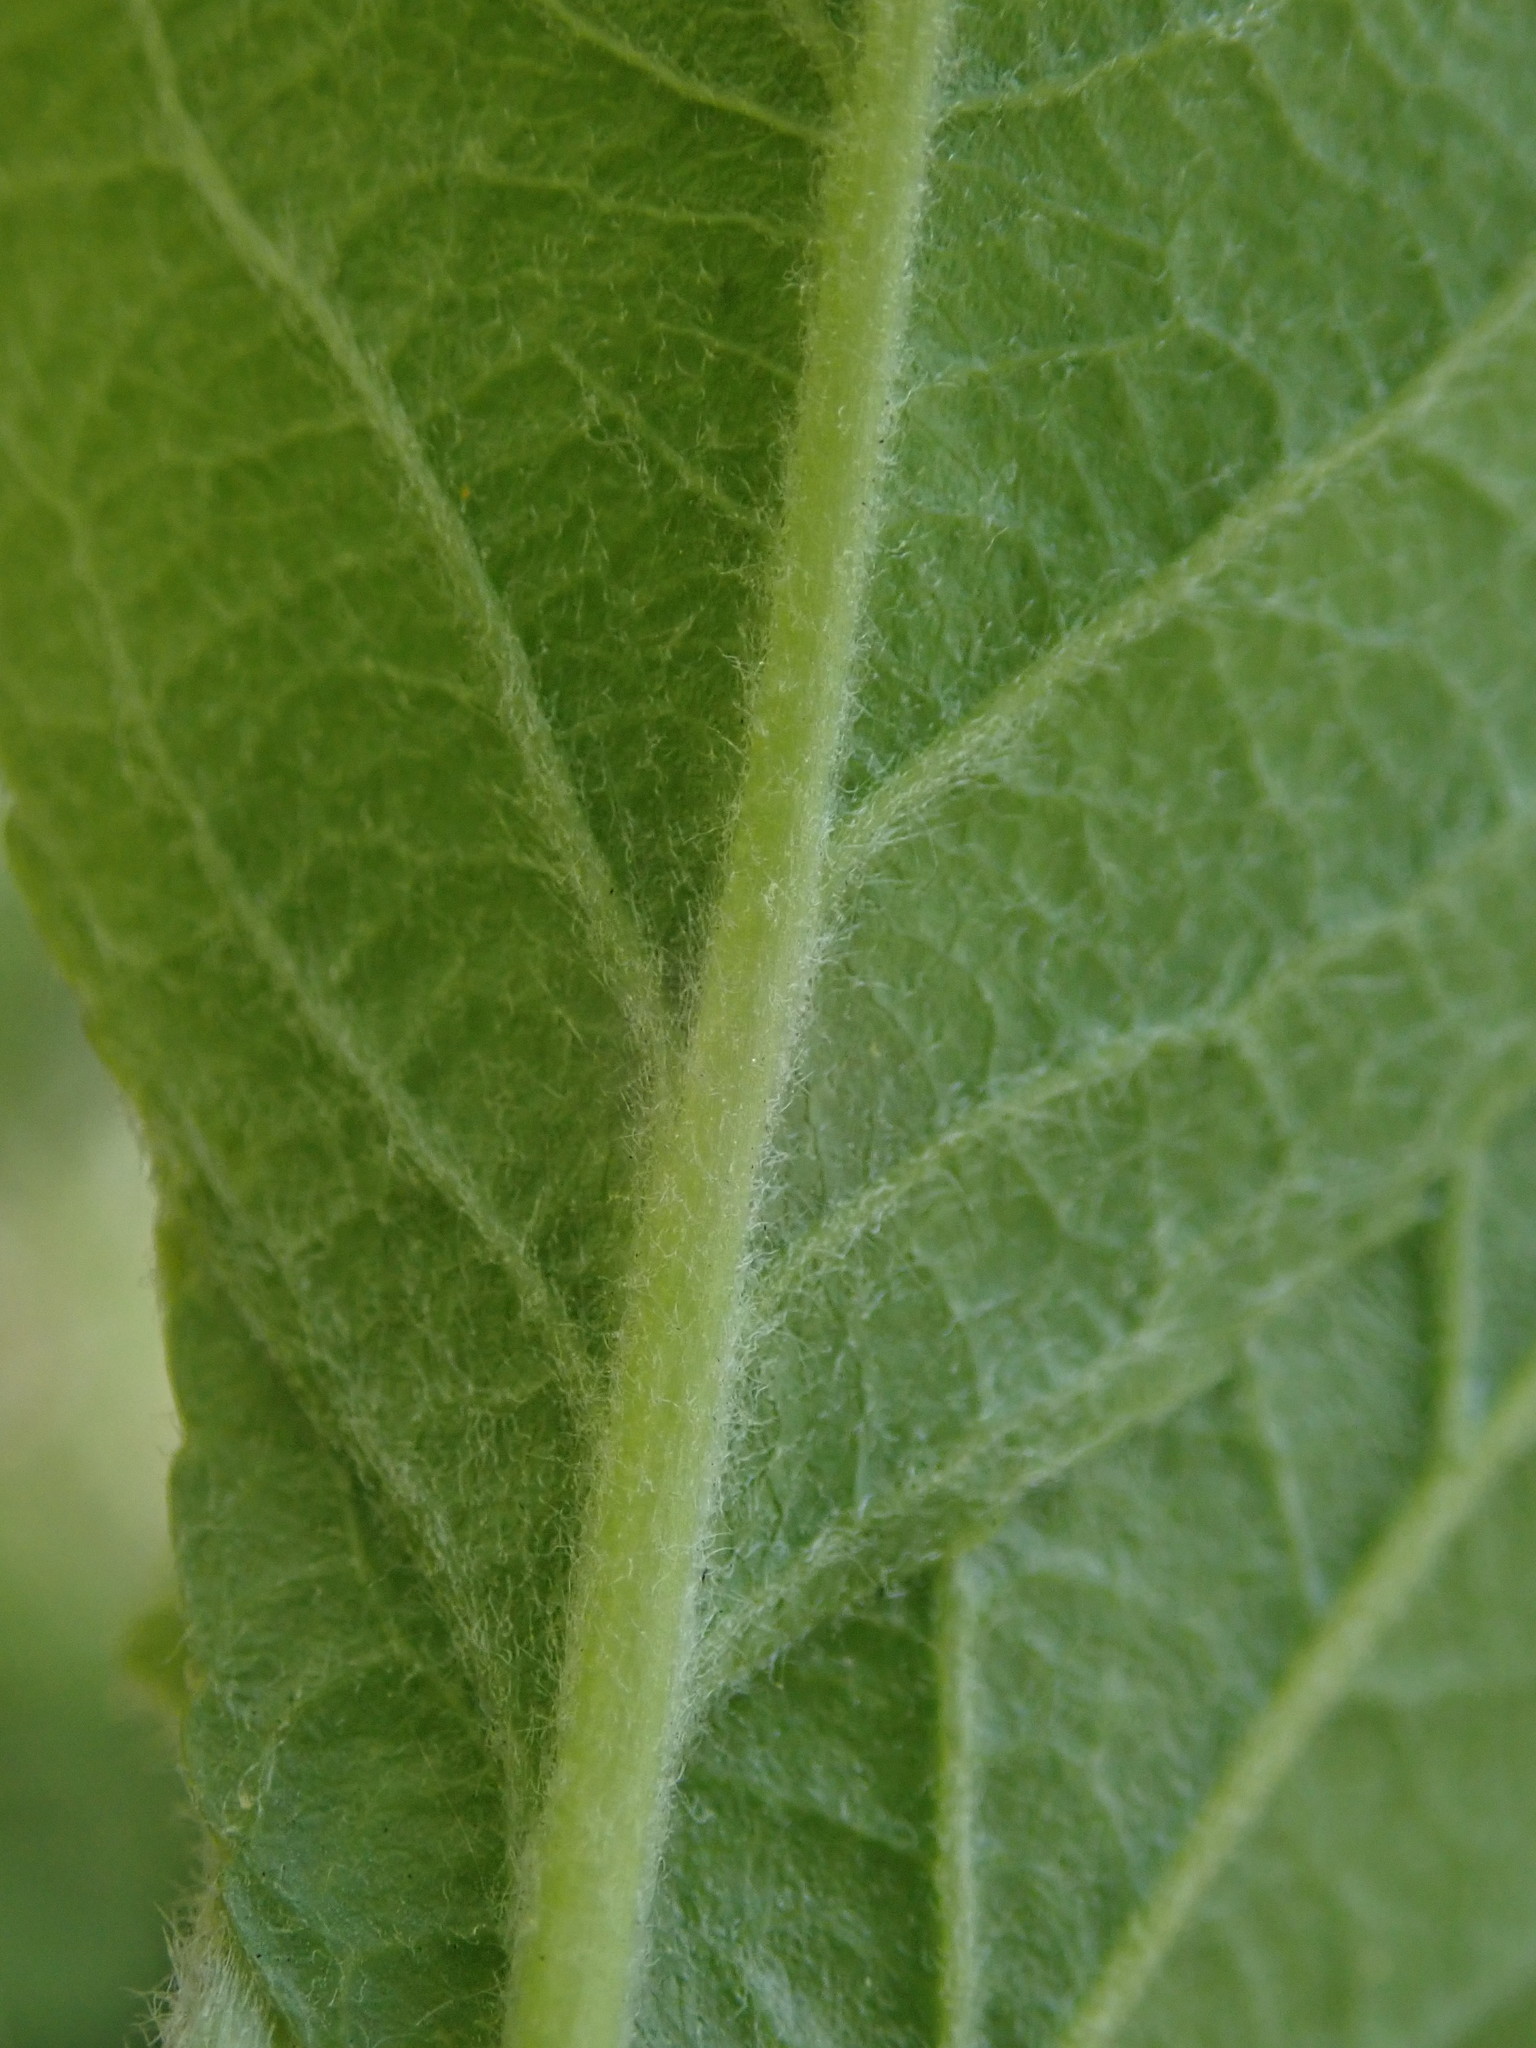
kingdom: Plantae
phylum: Tracheophyta
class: Magnoliopsida
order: Rosales
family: Rosaceae
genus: Malus
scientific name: Malus domestica
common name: Apple
